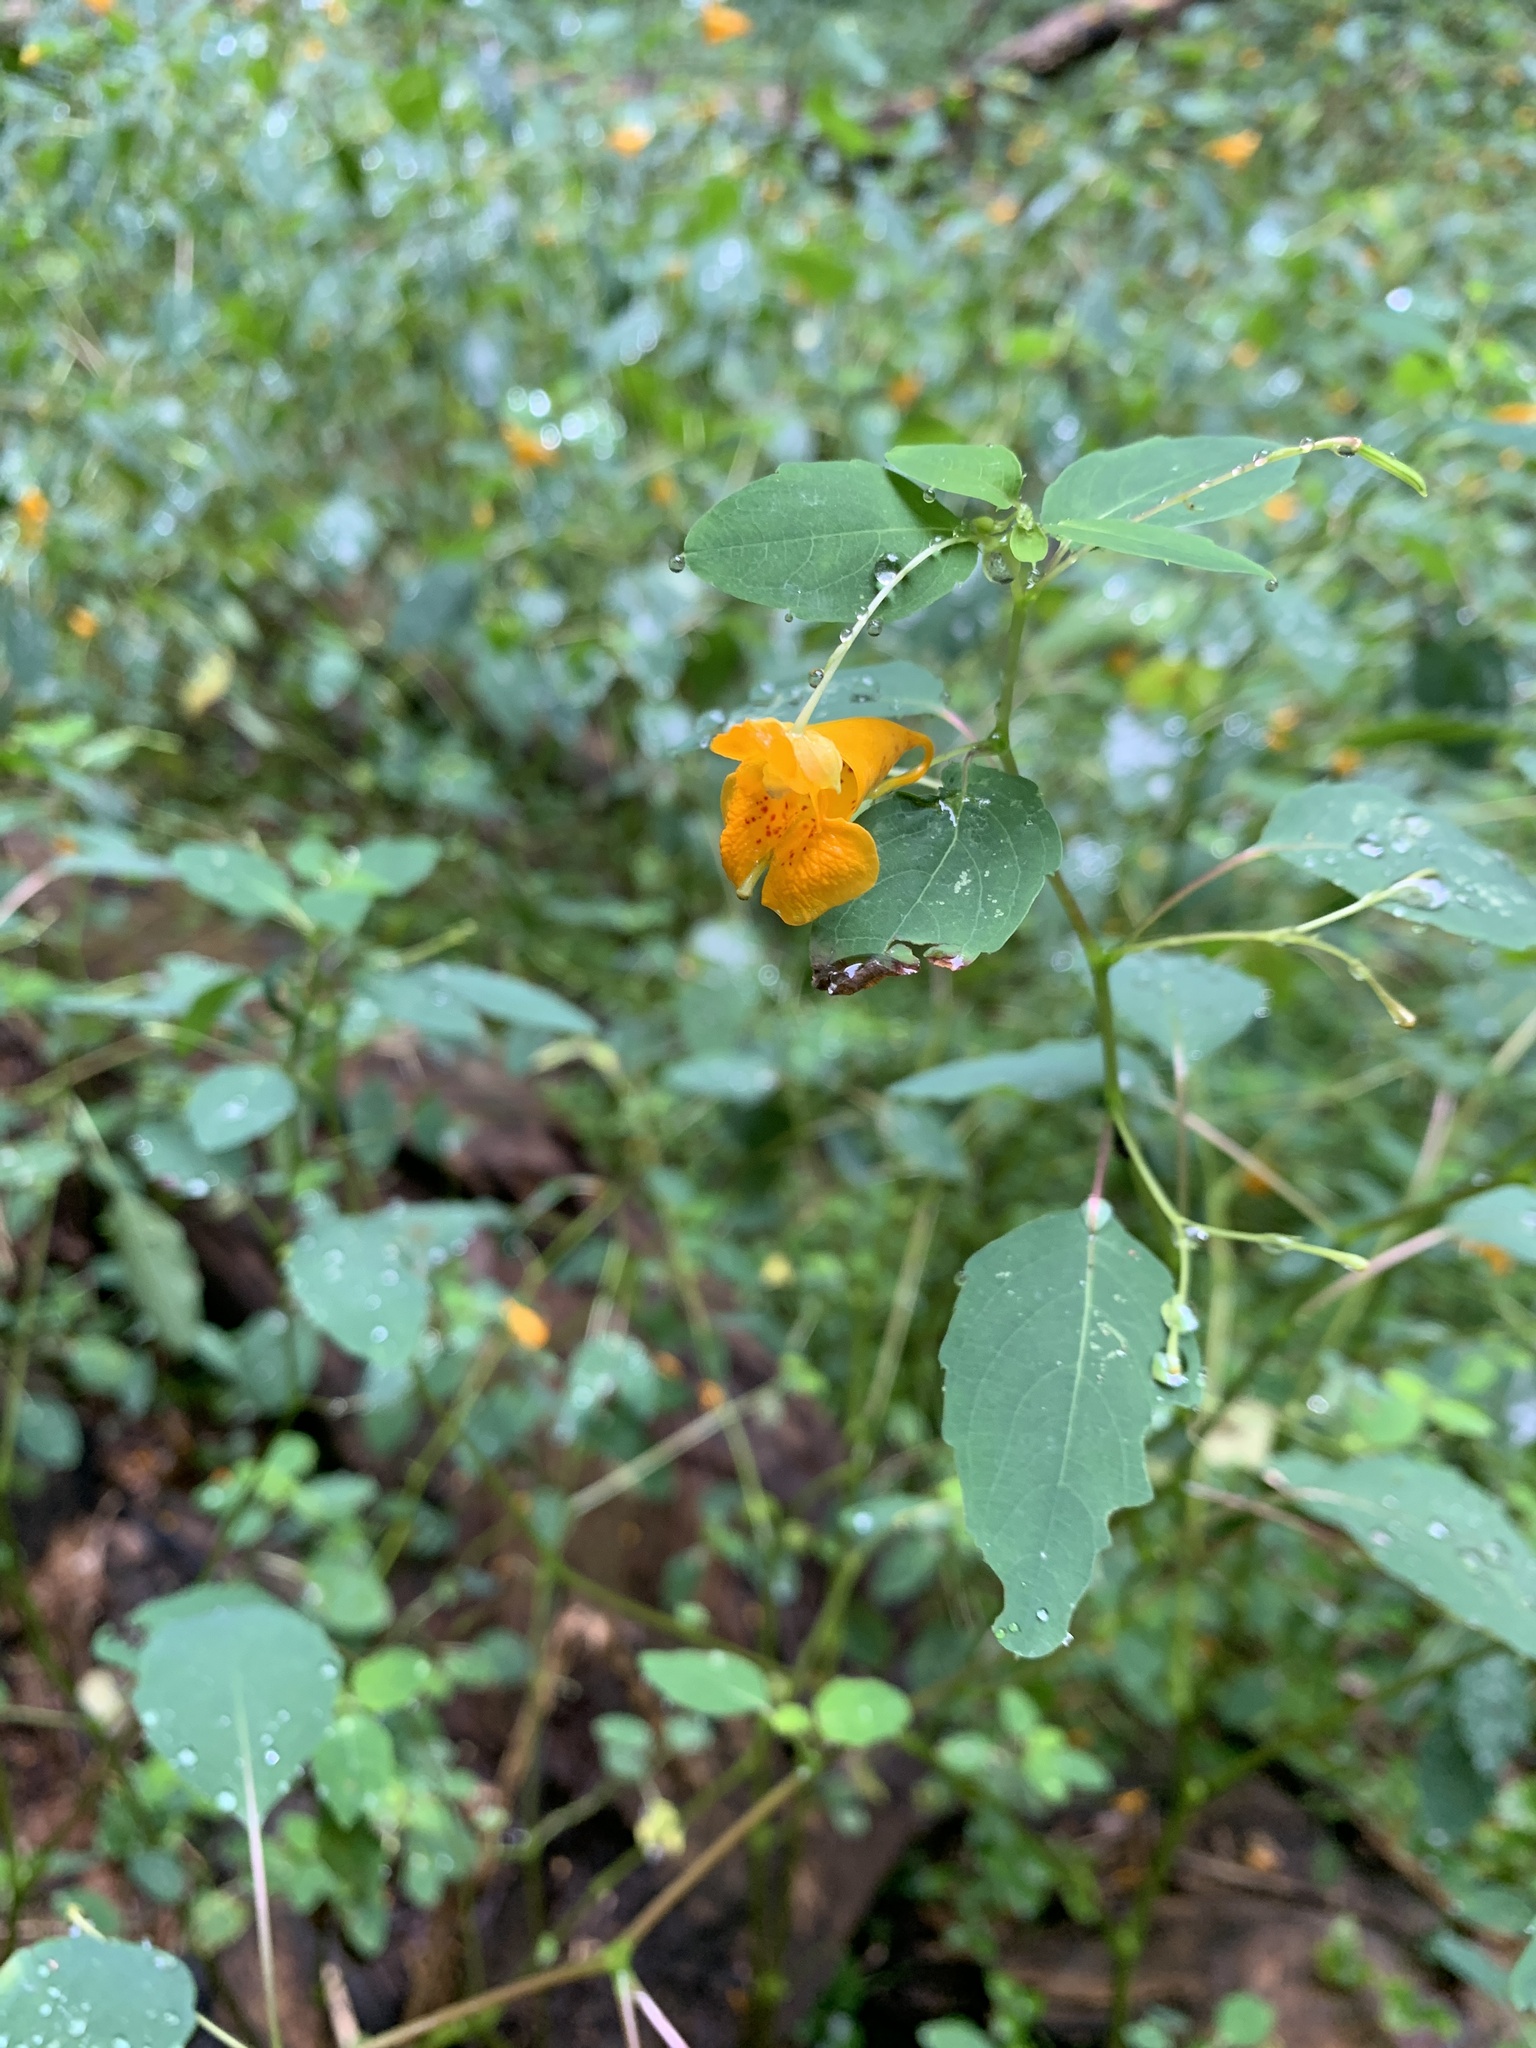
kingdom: Plantae
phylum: Tracheophyta
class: Magnoliopsida
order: Ericales
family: Balsaminaceae
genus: Impatiens
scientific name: Impatiens capensis
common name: Orange balsam
